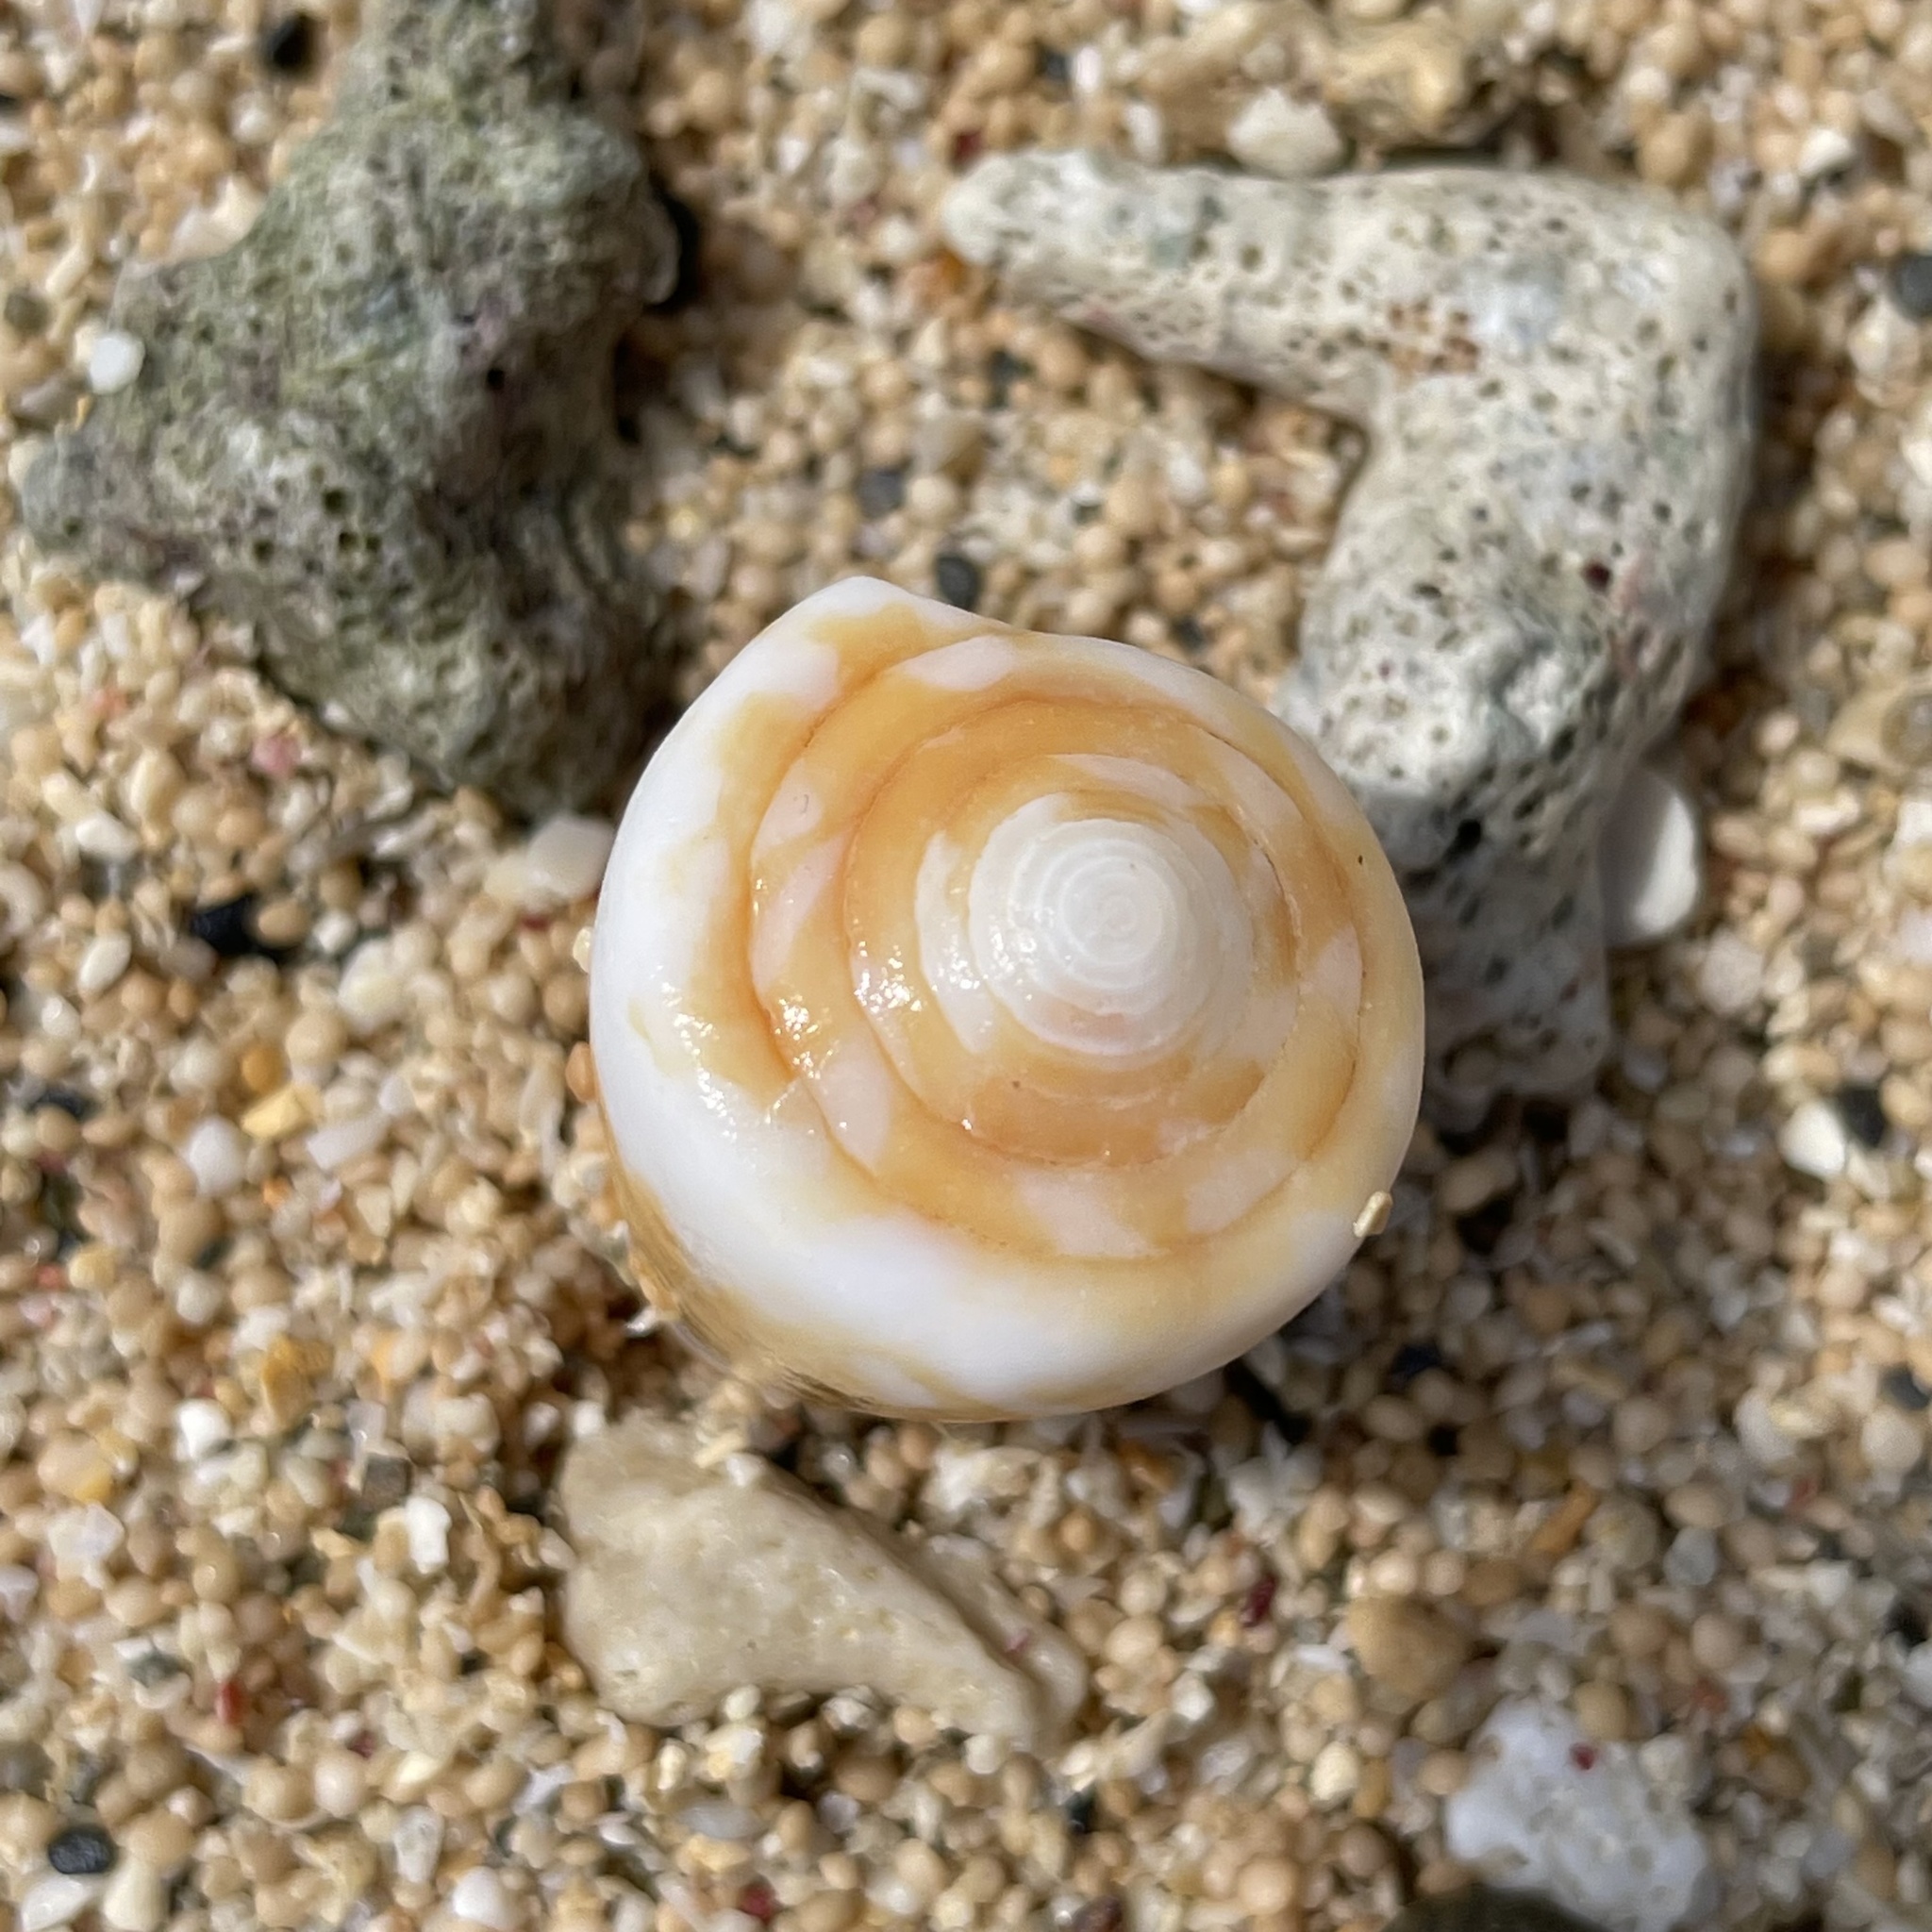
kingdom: Animalia
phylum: Mollusca
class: Gastropoda
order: Neogastropoda
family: Conidae
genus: Conus
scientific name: Conus litoglyphus
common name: Lithograph cone
